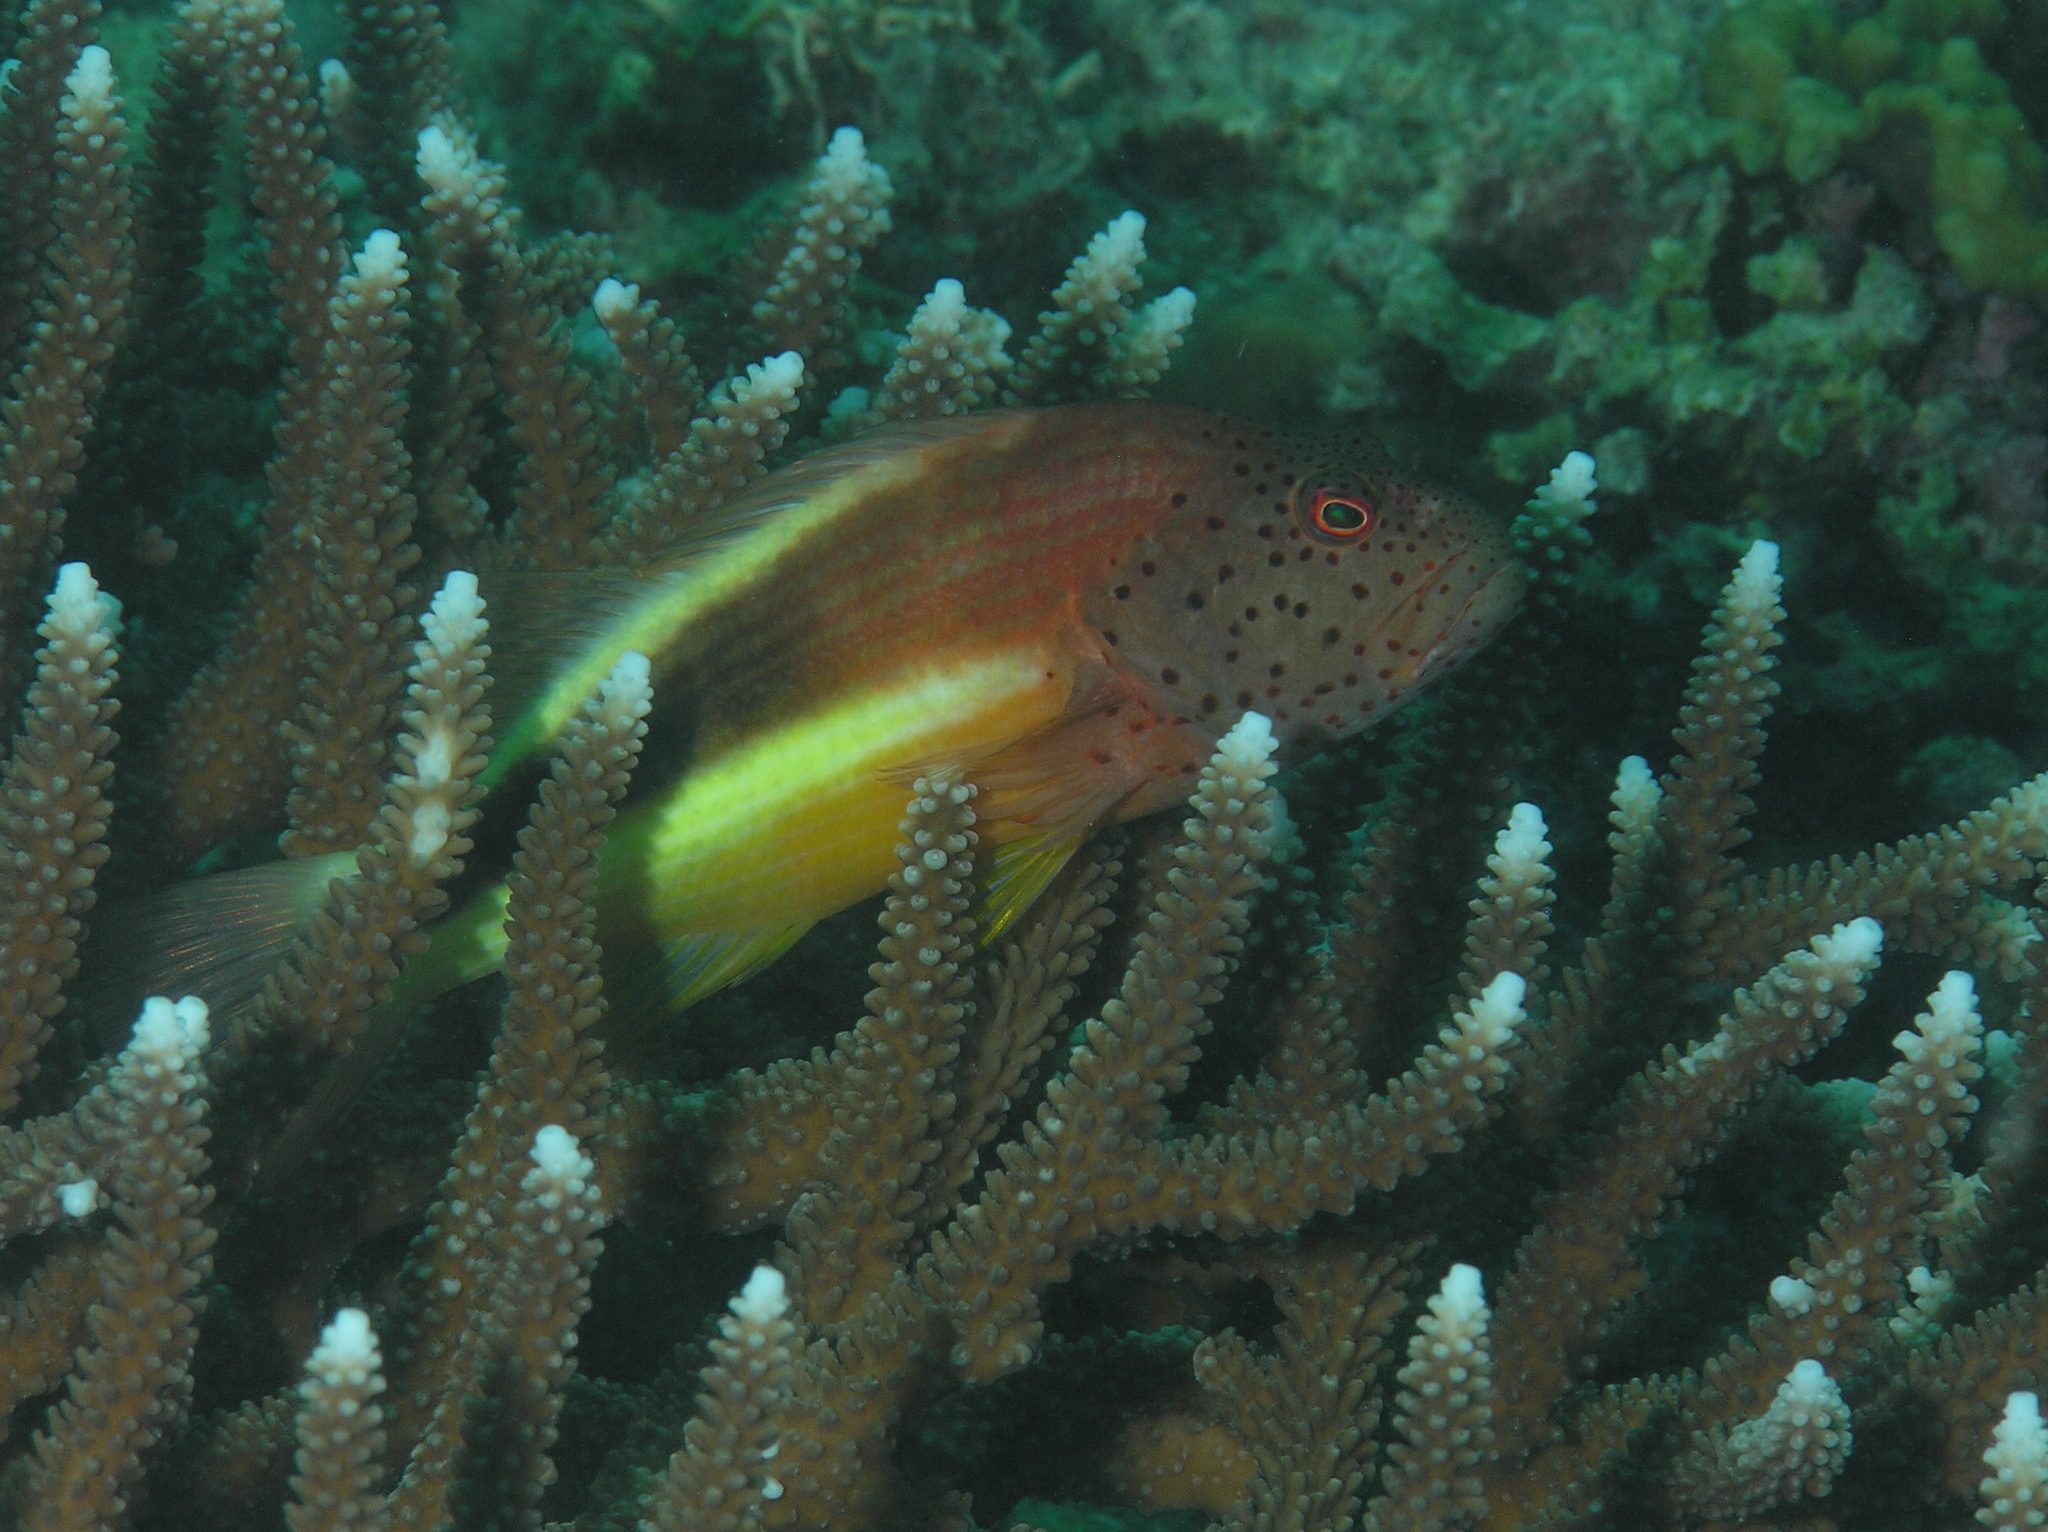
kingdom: Animalia
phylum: Chordata
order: Perciformes
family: Cirrhitidae
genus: Paracirrhites
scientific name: Paracirrhites forsteri
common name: Freckled hawkfish
